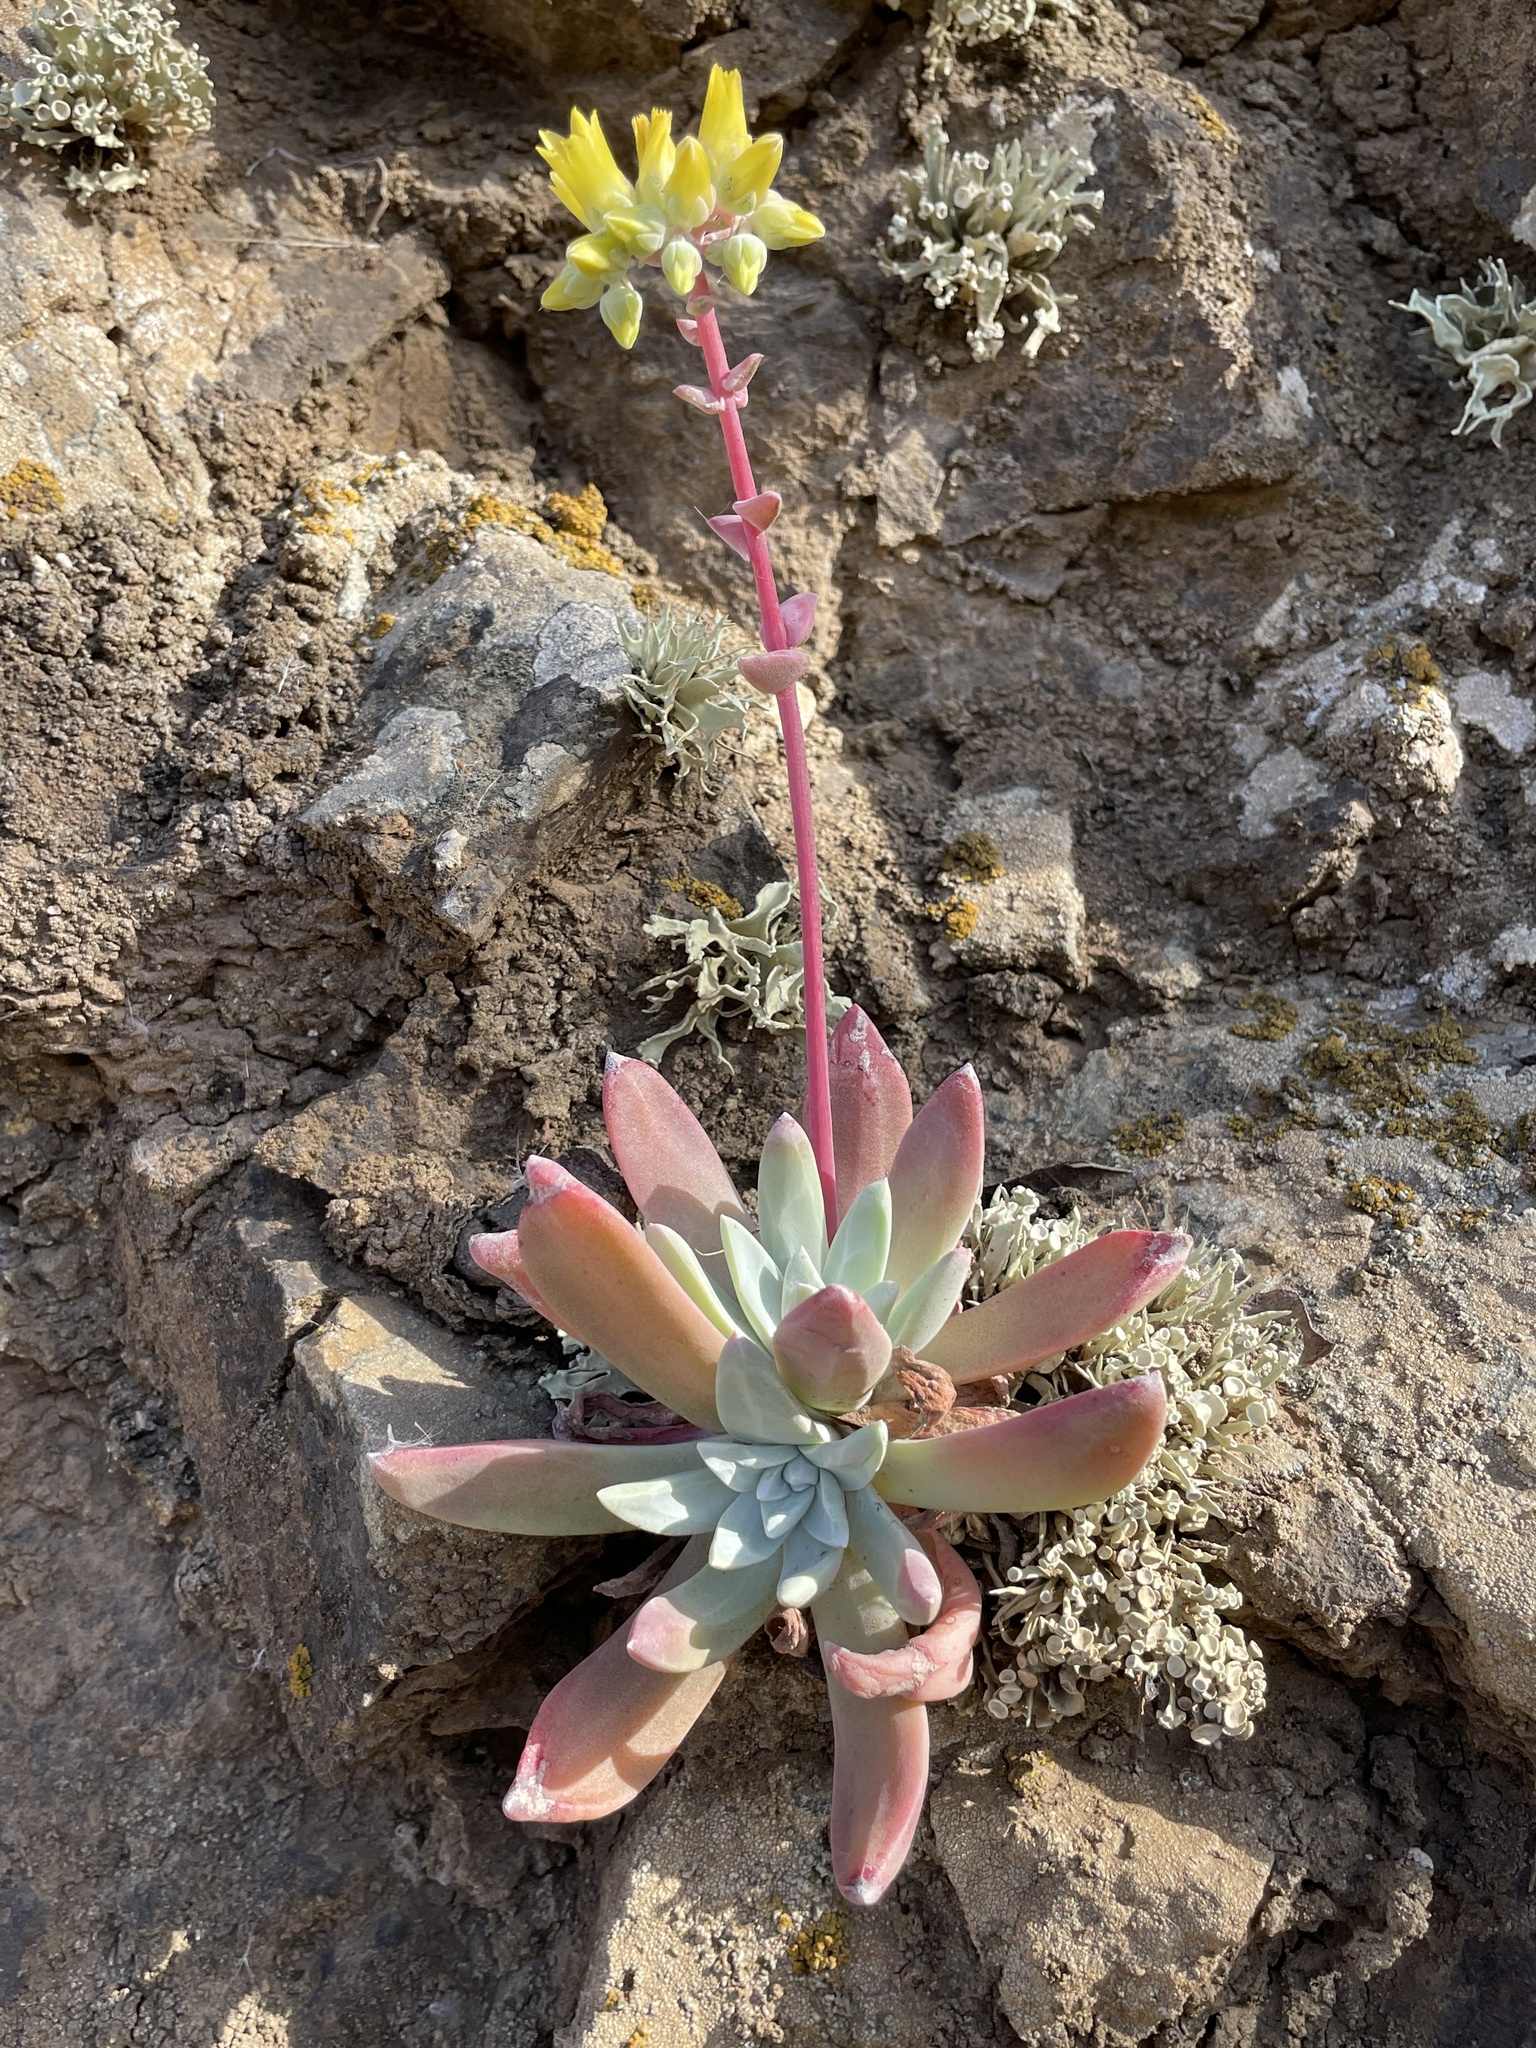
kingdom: Plantae
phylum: Tracheophyta
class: Magnoliopsida
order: Saxifragales
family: Crassulaceae
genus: Dudleya
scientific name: Dudleya greenei
